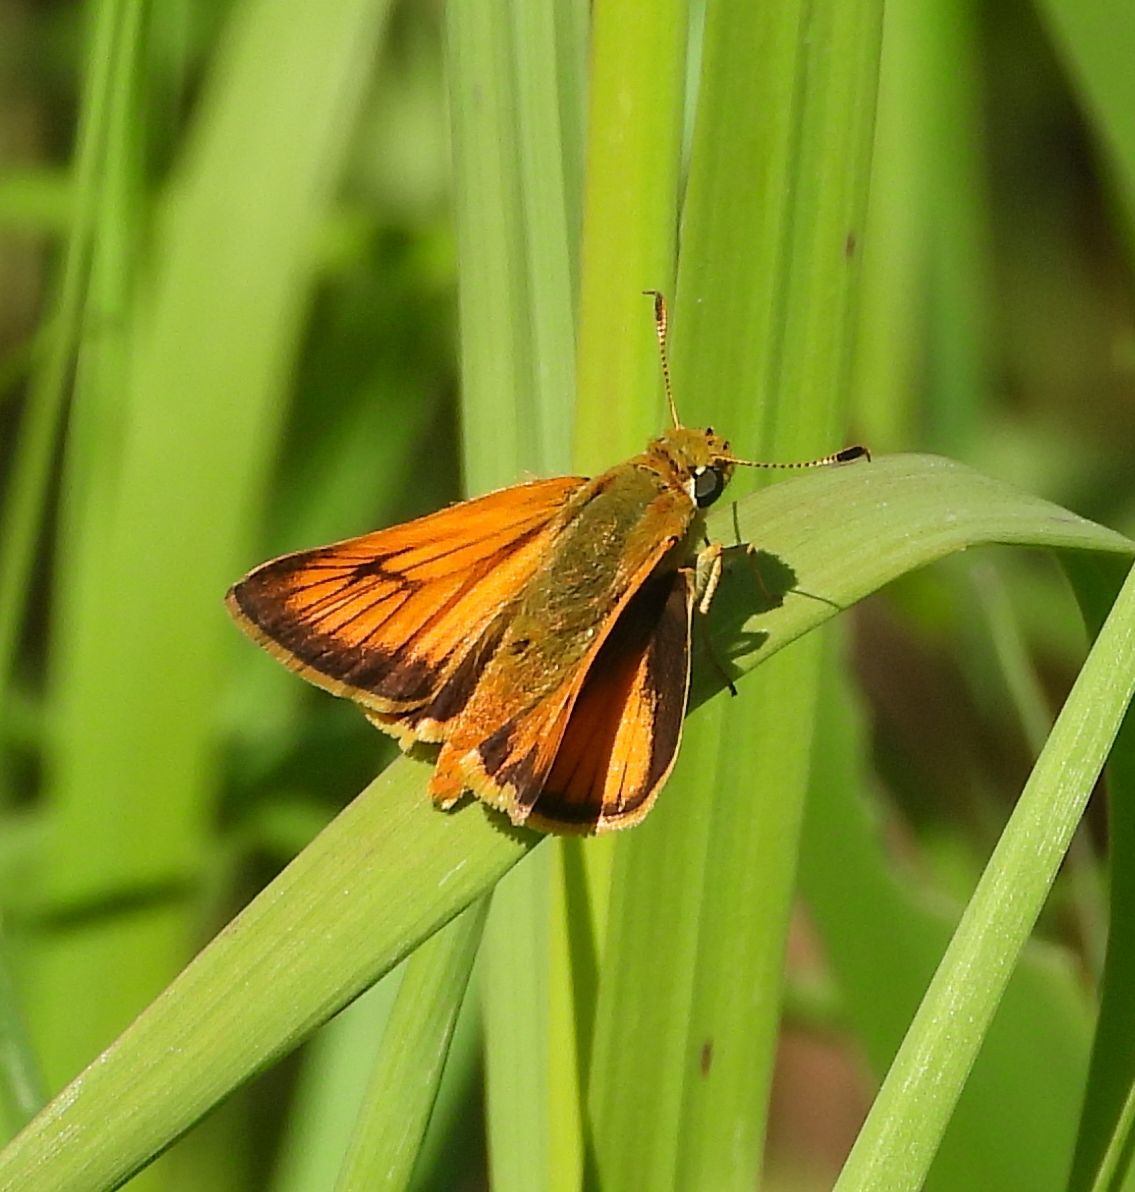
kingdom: Animalia
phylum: Arthropoda
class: Insecta
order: Lepidoptera
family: Hesperiidae
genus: Atrytone
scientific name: Atrytone delaware
